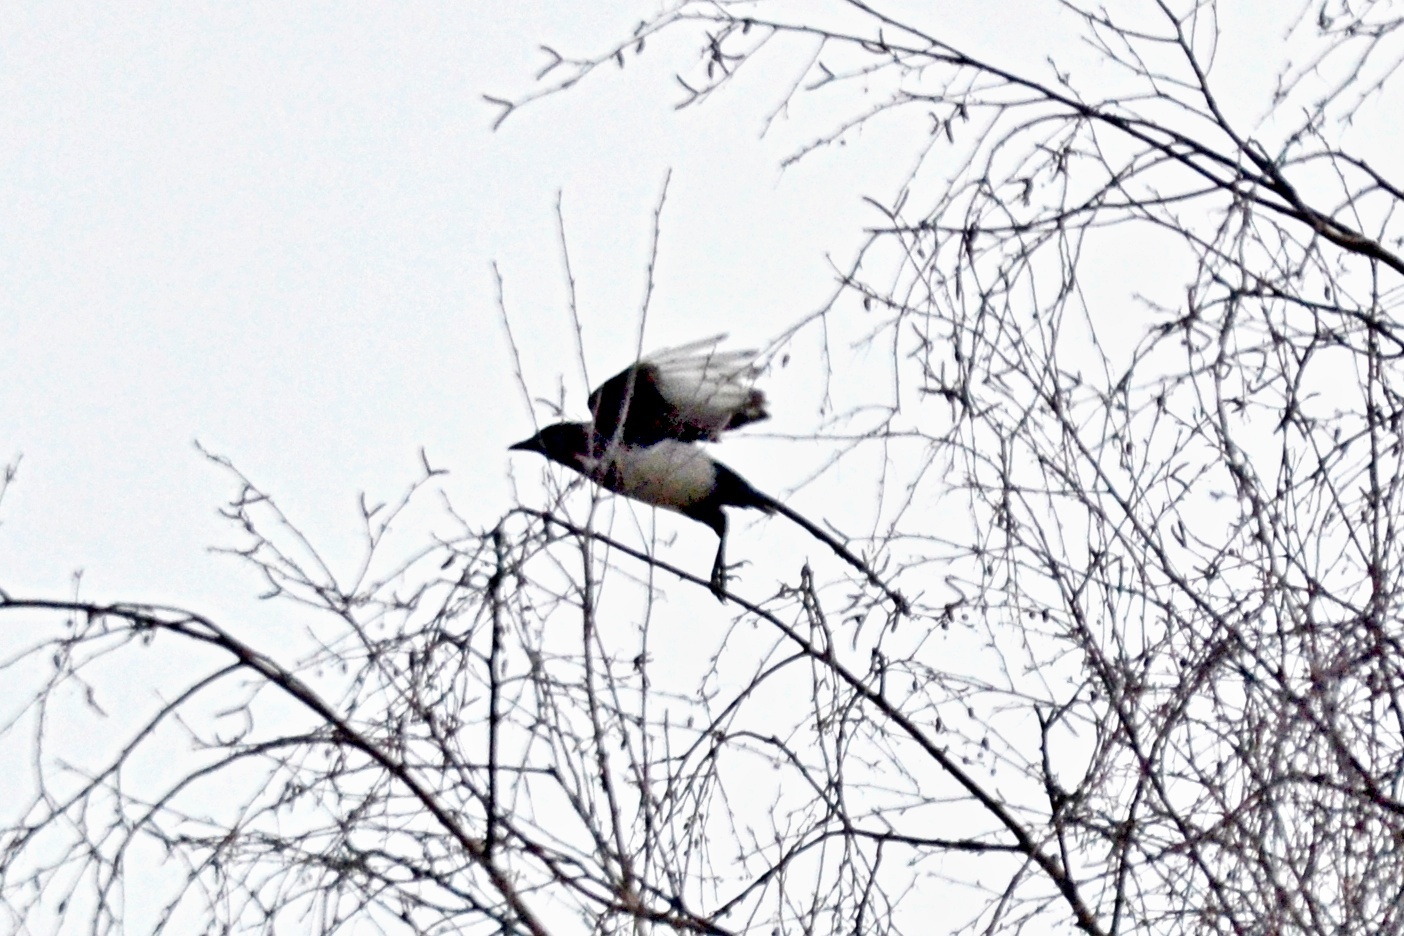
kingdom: Animalia
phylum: Chordata
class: Aves
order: Passeriformes
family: Corvidae
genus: Pica
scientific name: Pica pica
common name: Eurasian magpie
